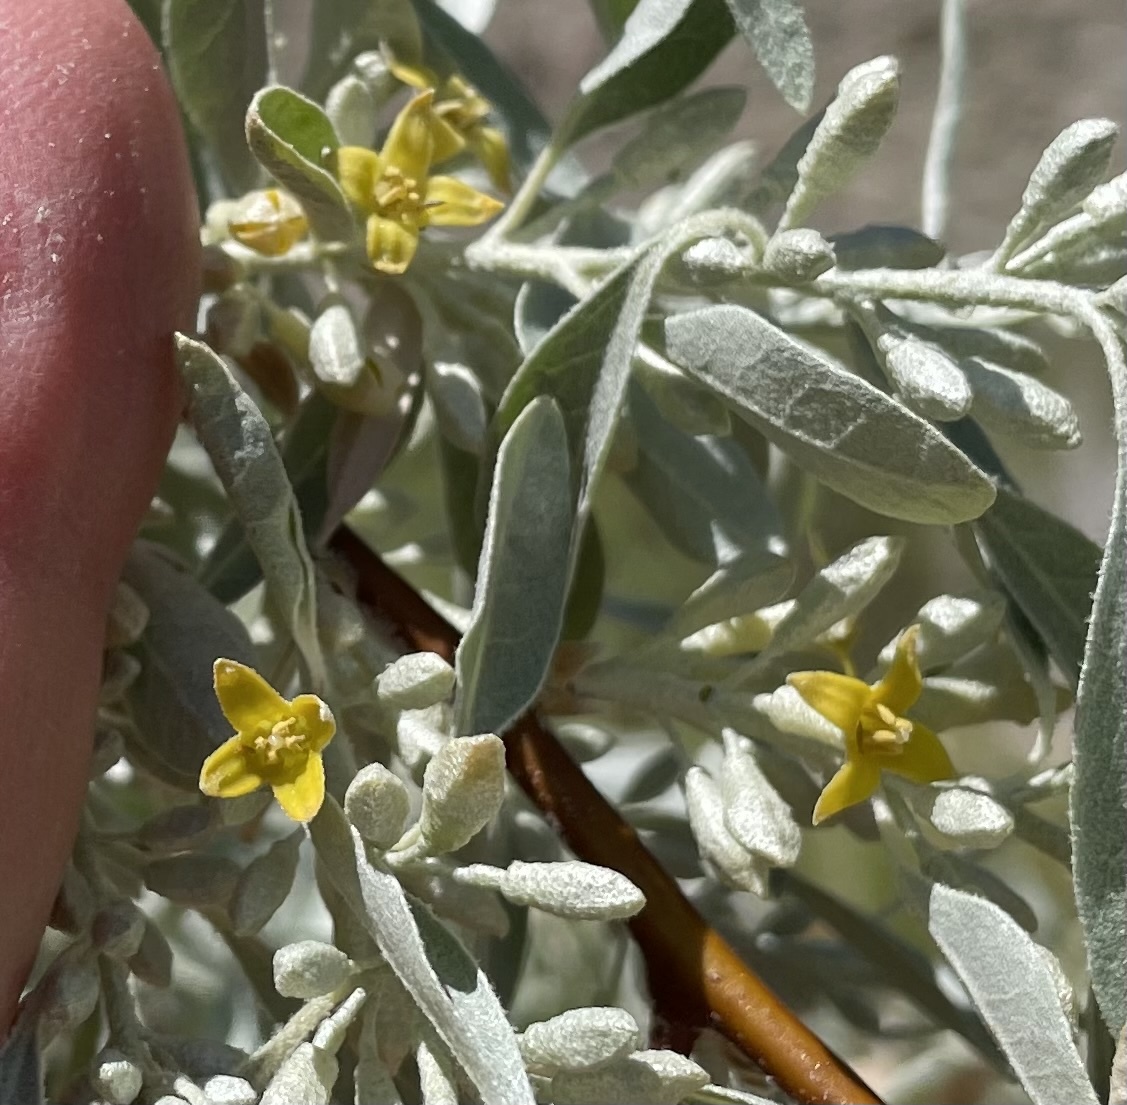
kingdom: Plantae
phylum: Tracheophyta
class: Magnoliopsida
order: Rosales
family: Elaeagnaceae
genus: Elaeagnus
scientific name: Elaeagnus angustifolia
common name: Russian olive
